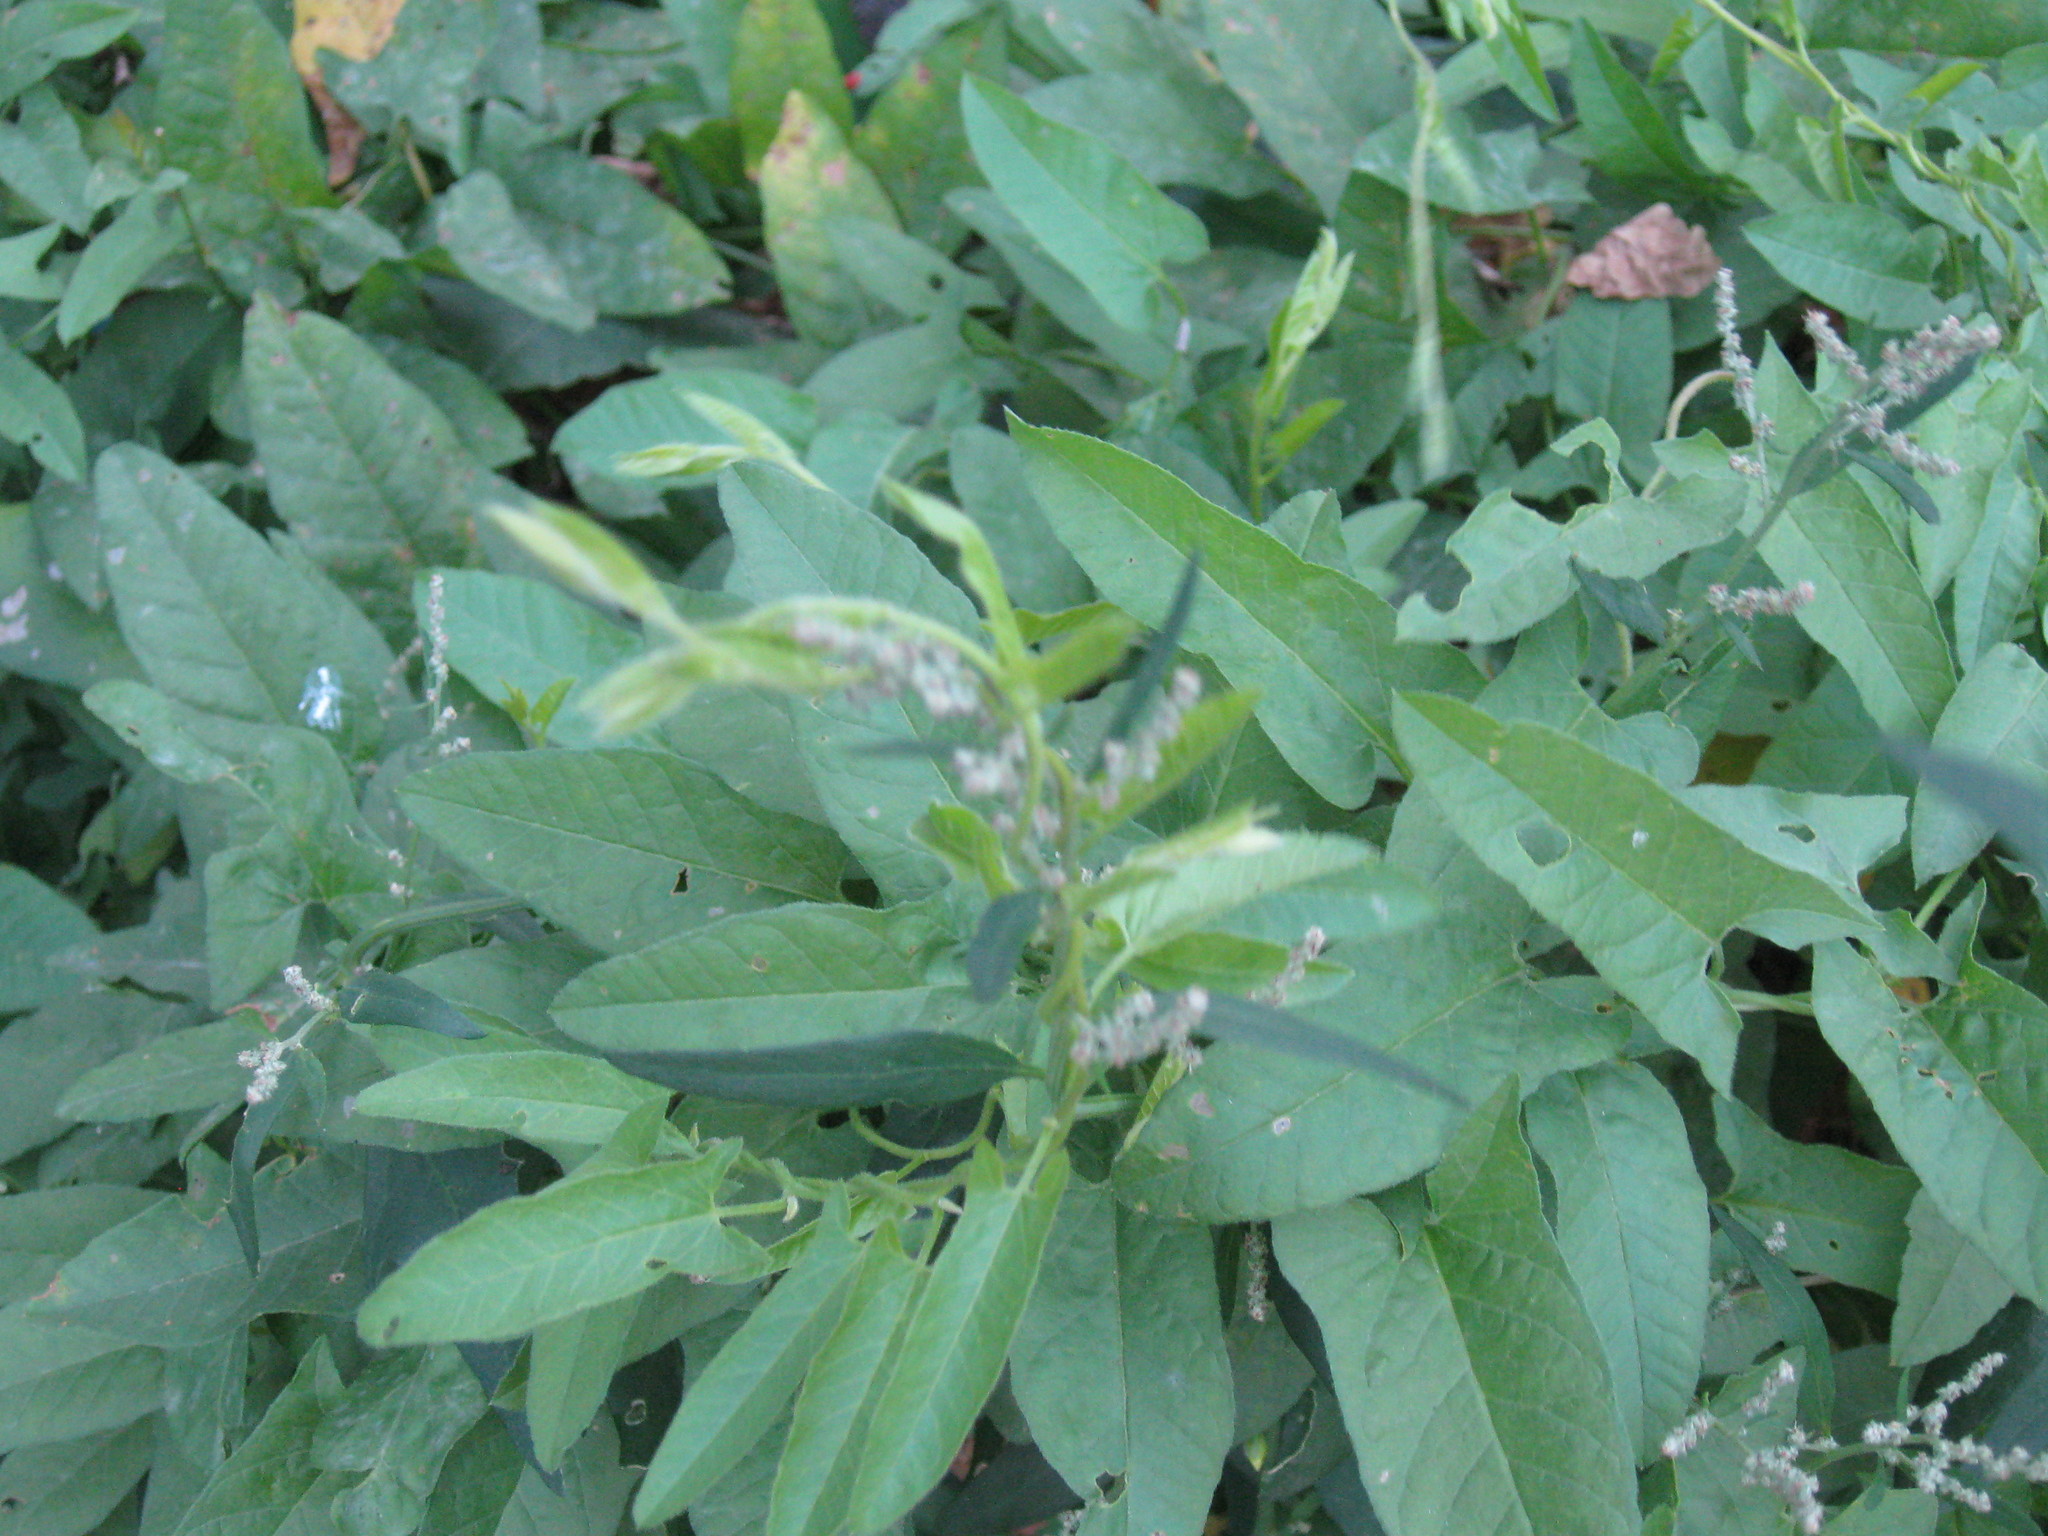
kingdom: Plantae
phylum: Tracheophyta
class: Magnoliopsida
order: Solanales
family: Convolvulaceae
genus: Convolvulus
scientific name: Convolvulus arvensis
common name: Field bindweed
